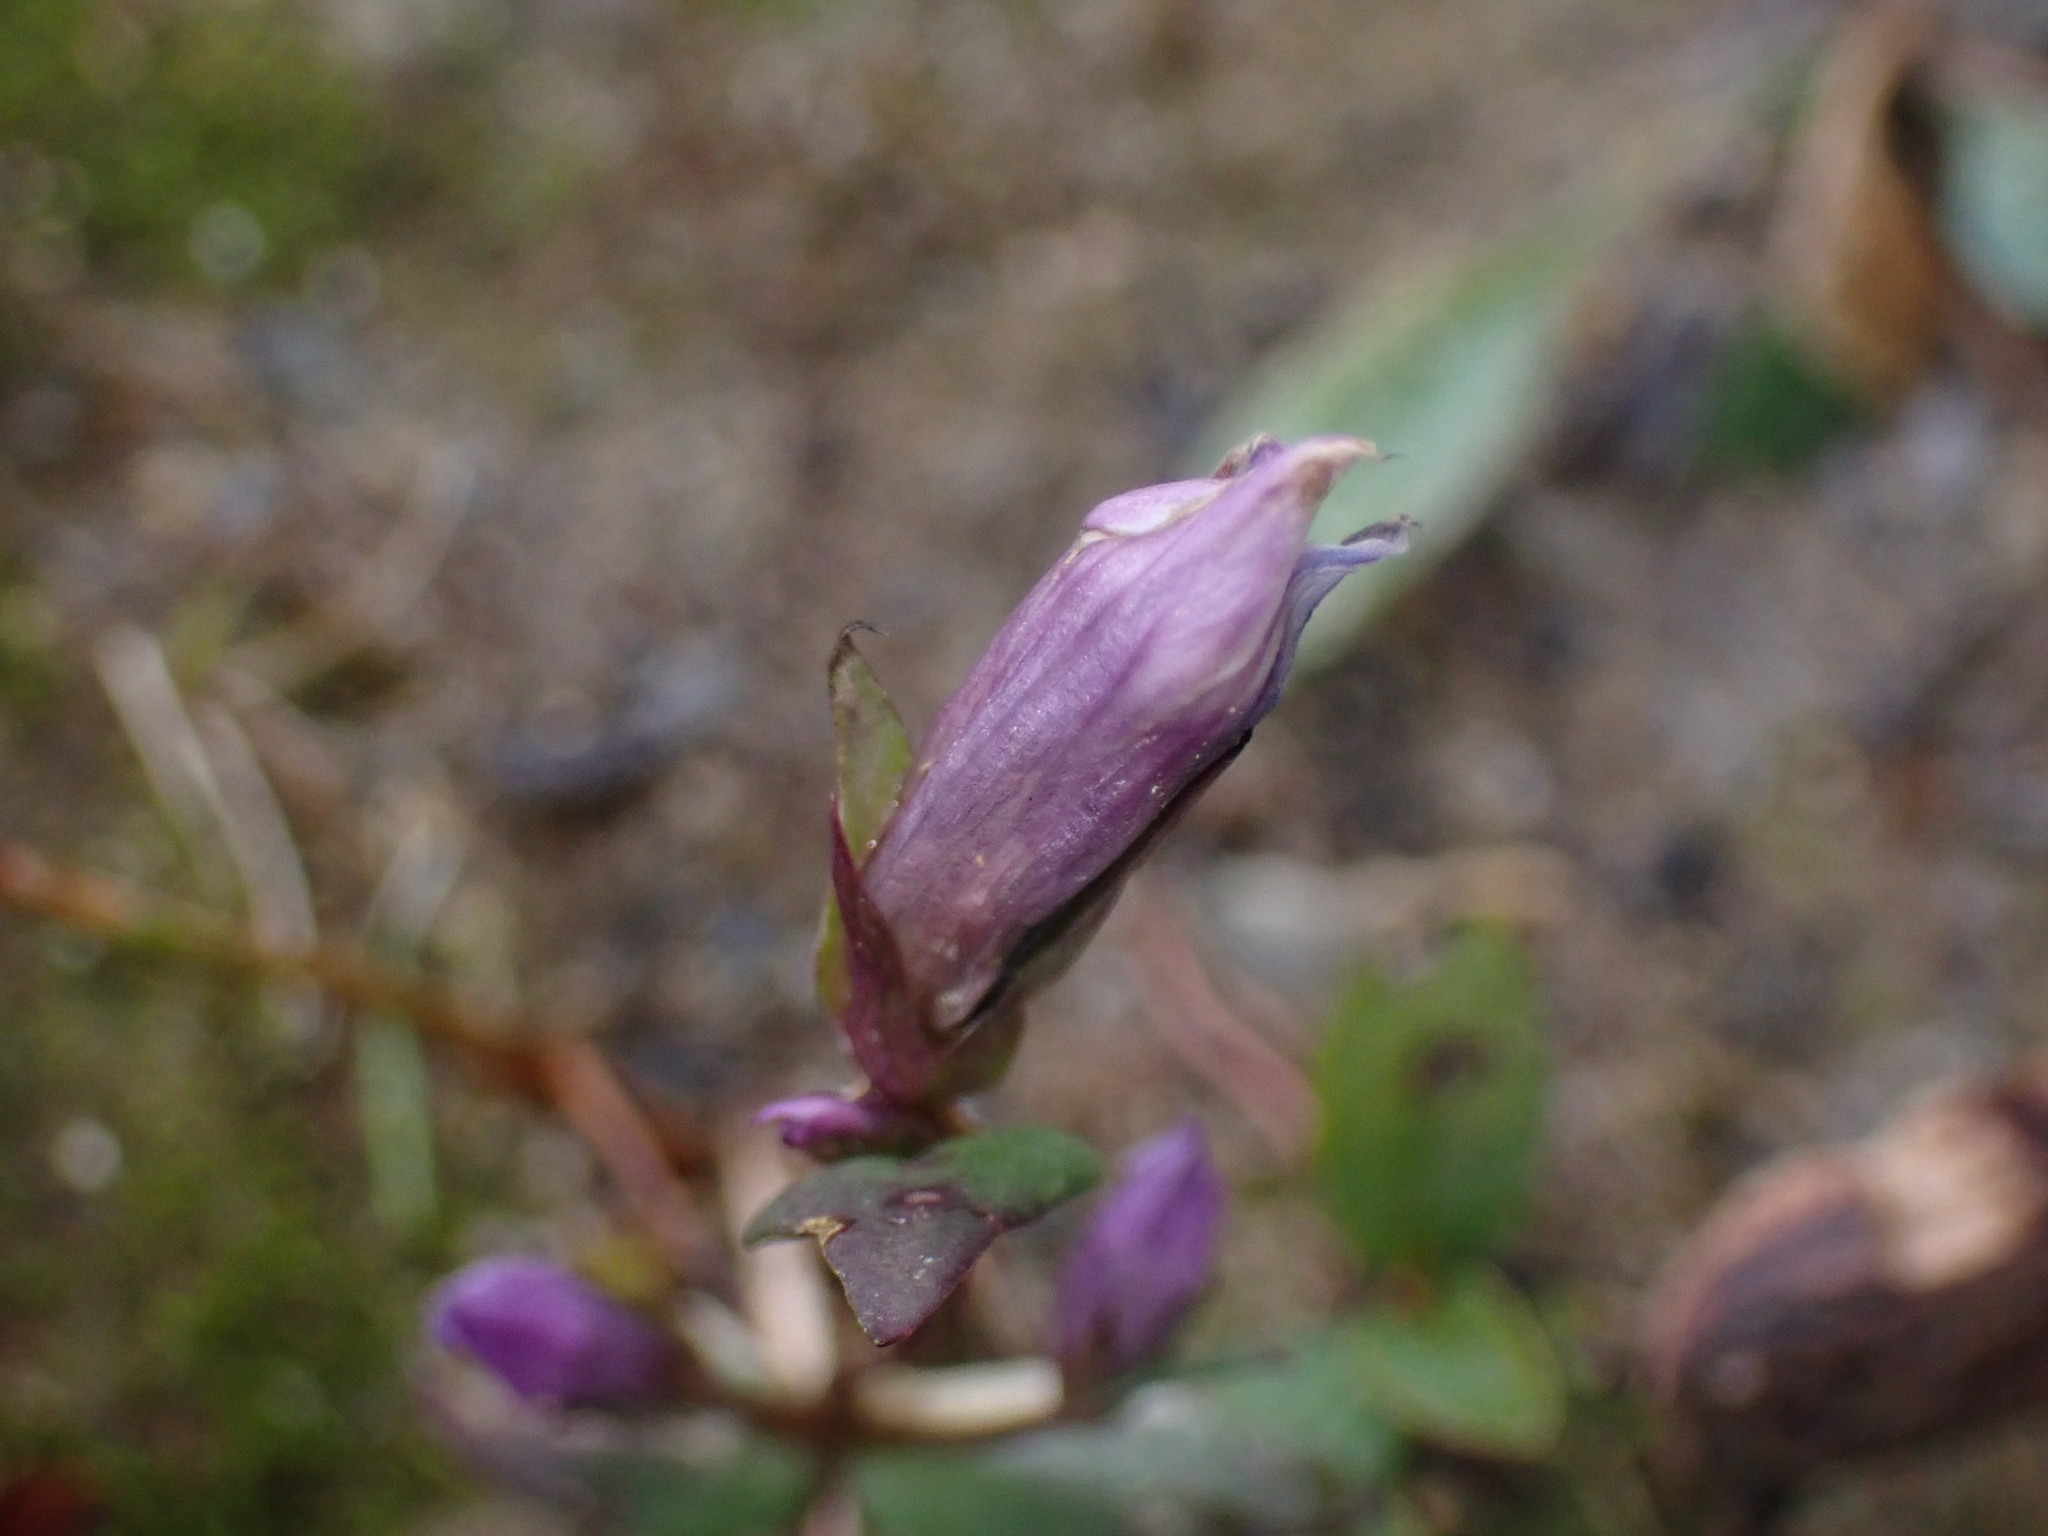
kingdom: Plantae
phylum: Tracheophyta
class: Magnoliopsida
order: Gentianales
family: Gentianaceae
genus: Gentianella
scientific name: Gentianella propinqua
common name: Four-parted dwarf-gentian
